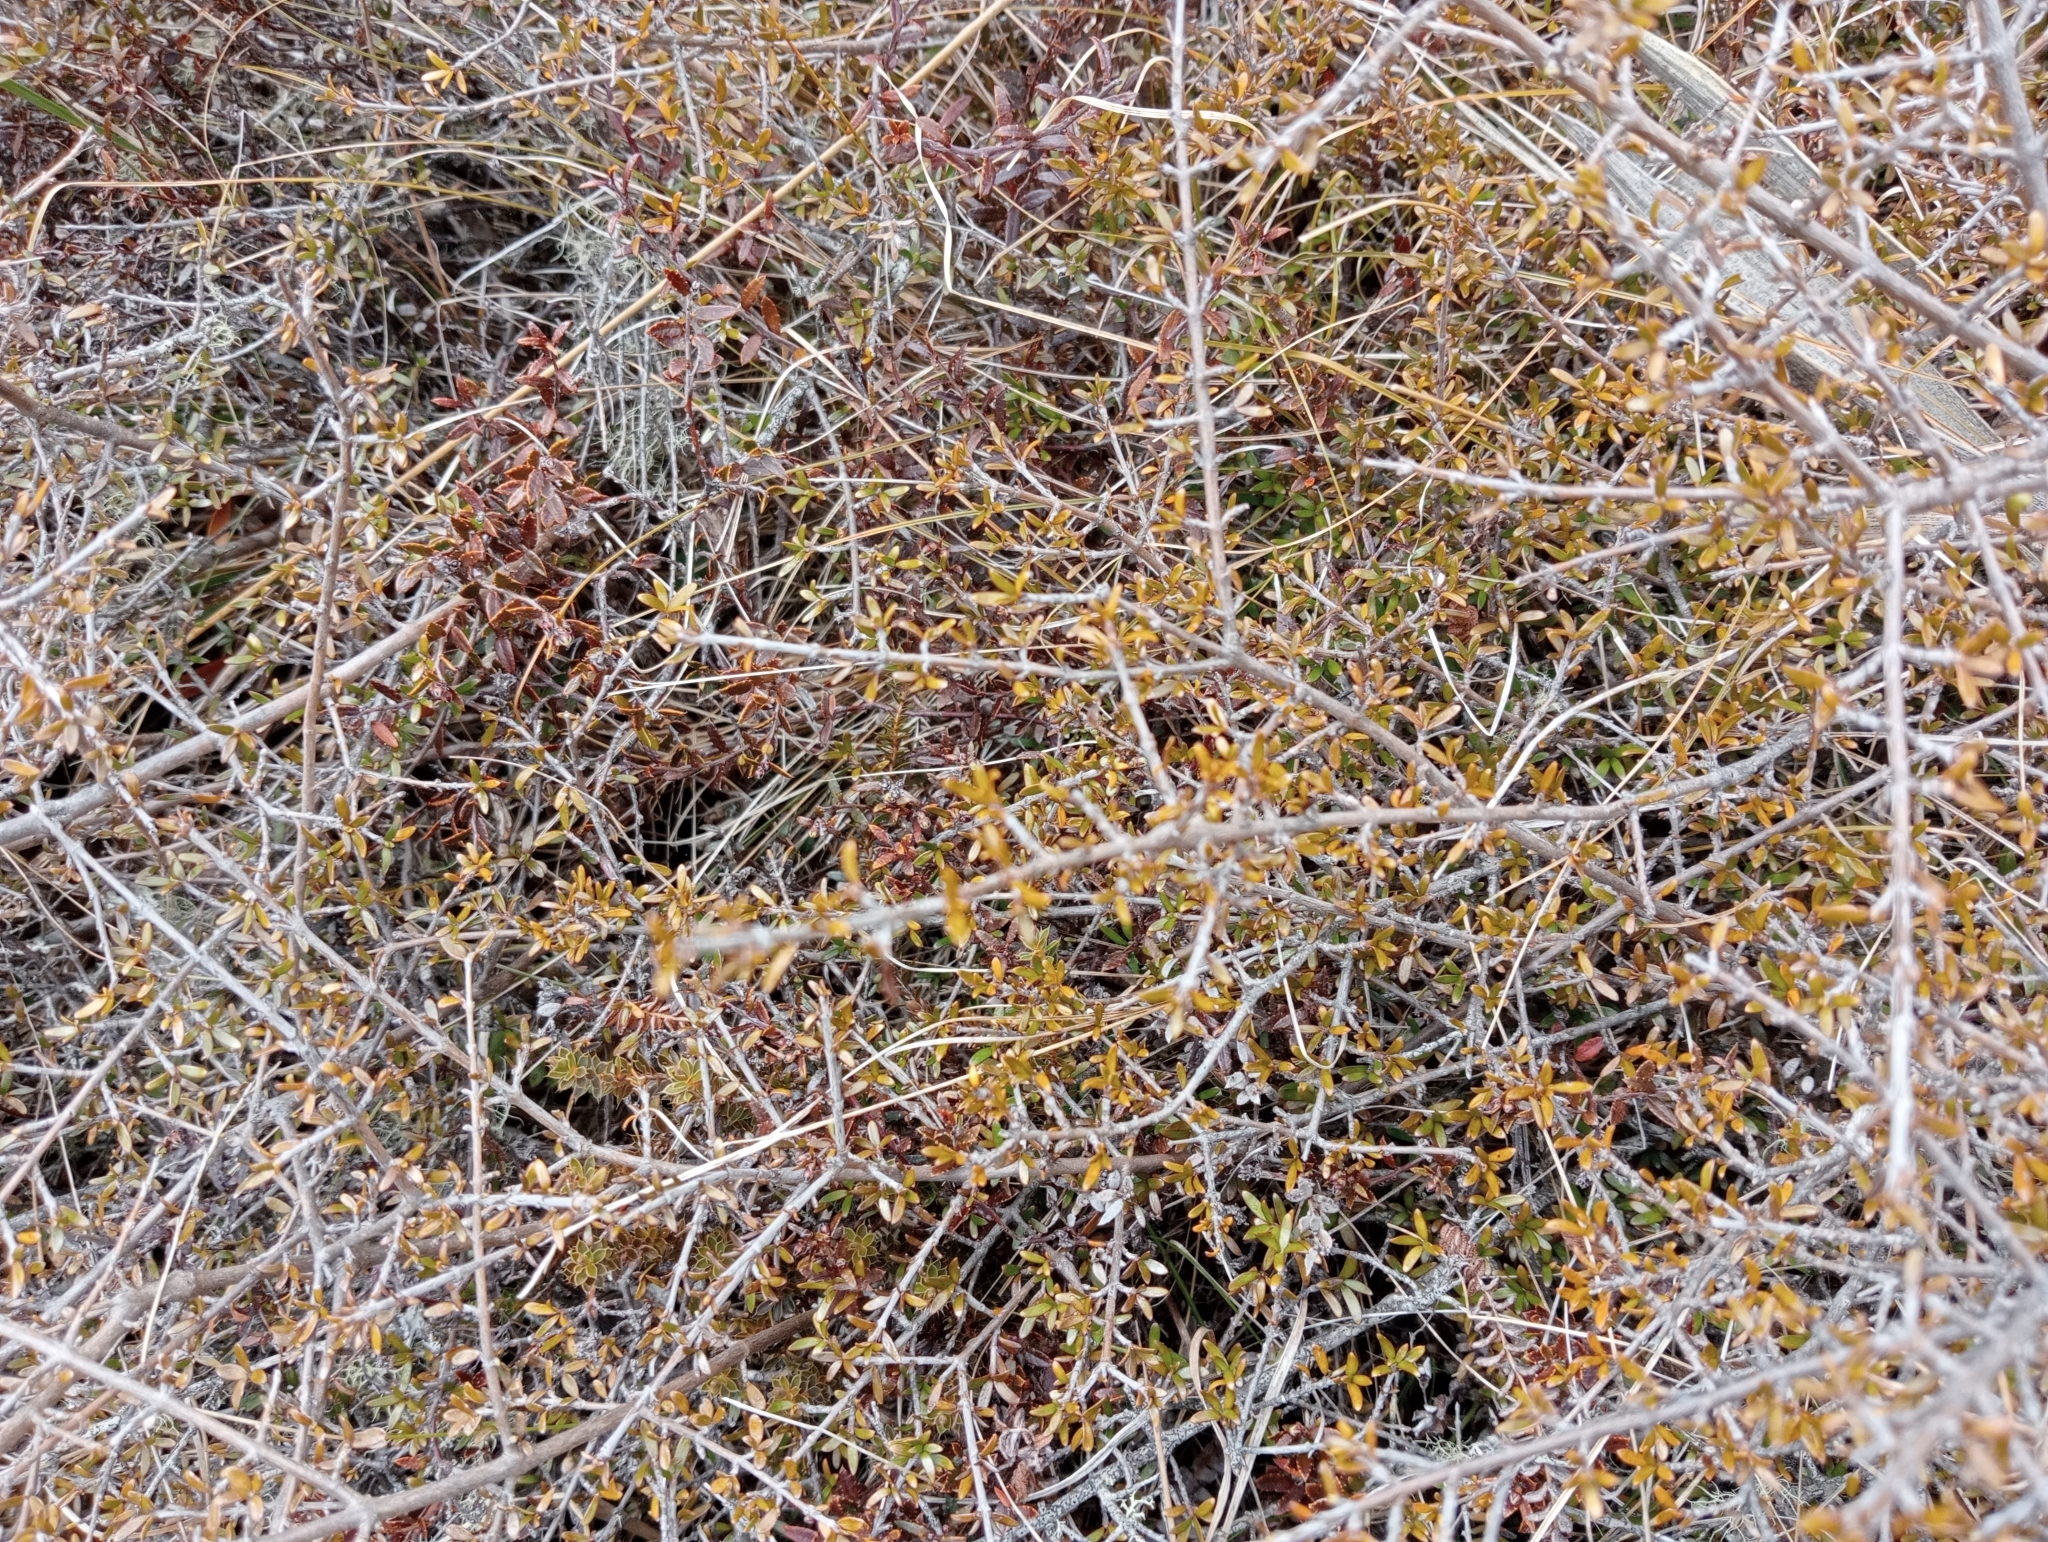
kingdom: Plantae
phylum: Tracheophyta
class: Magnoliopsida
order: Gentianales
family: Rubiaceae
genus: Coprosma
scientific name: Coprosma cheesemanii
